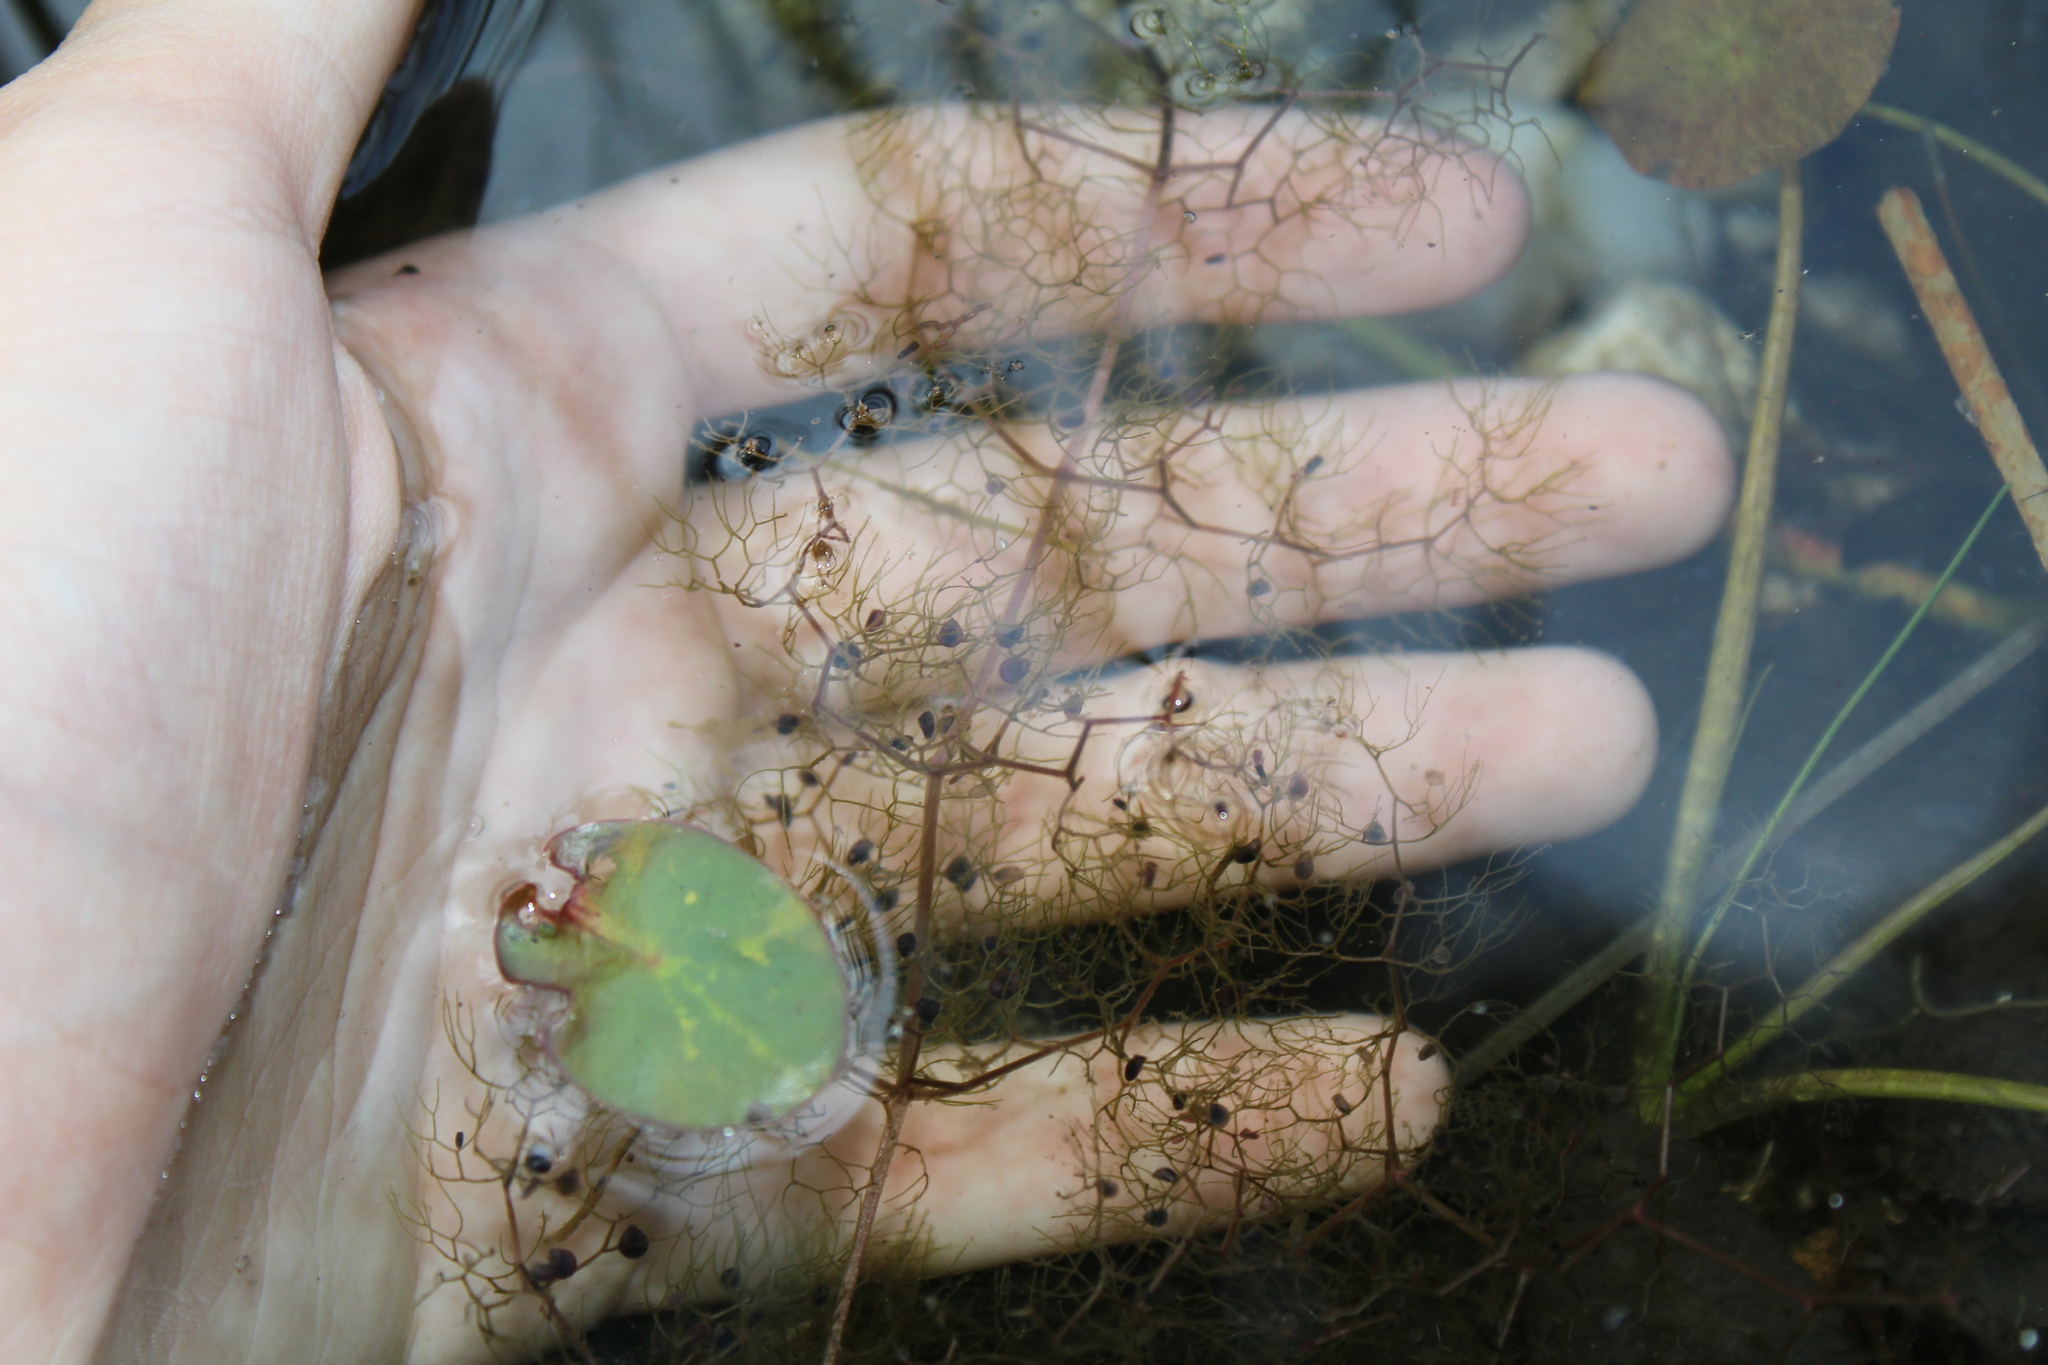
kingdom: Plantae
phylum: Tracheophyta
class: Magnoliopsida
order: Lamiales
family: Lentibulariaceae
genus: Utricularia
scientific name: Utricularia inflata
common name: Floating bladderwort
